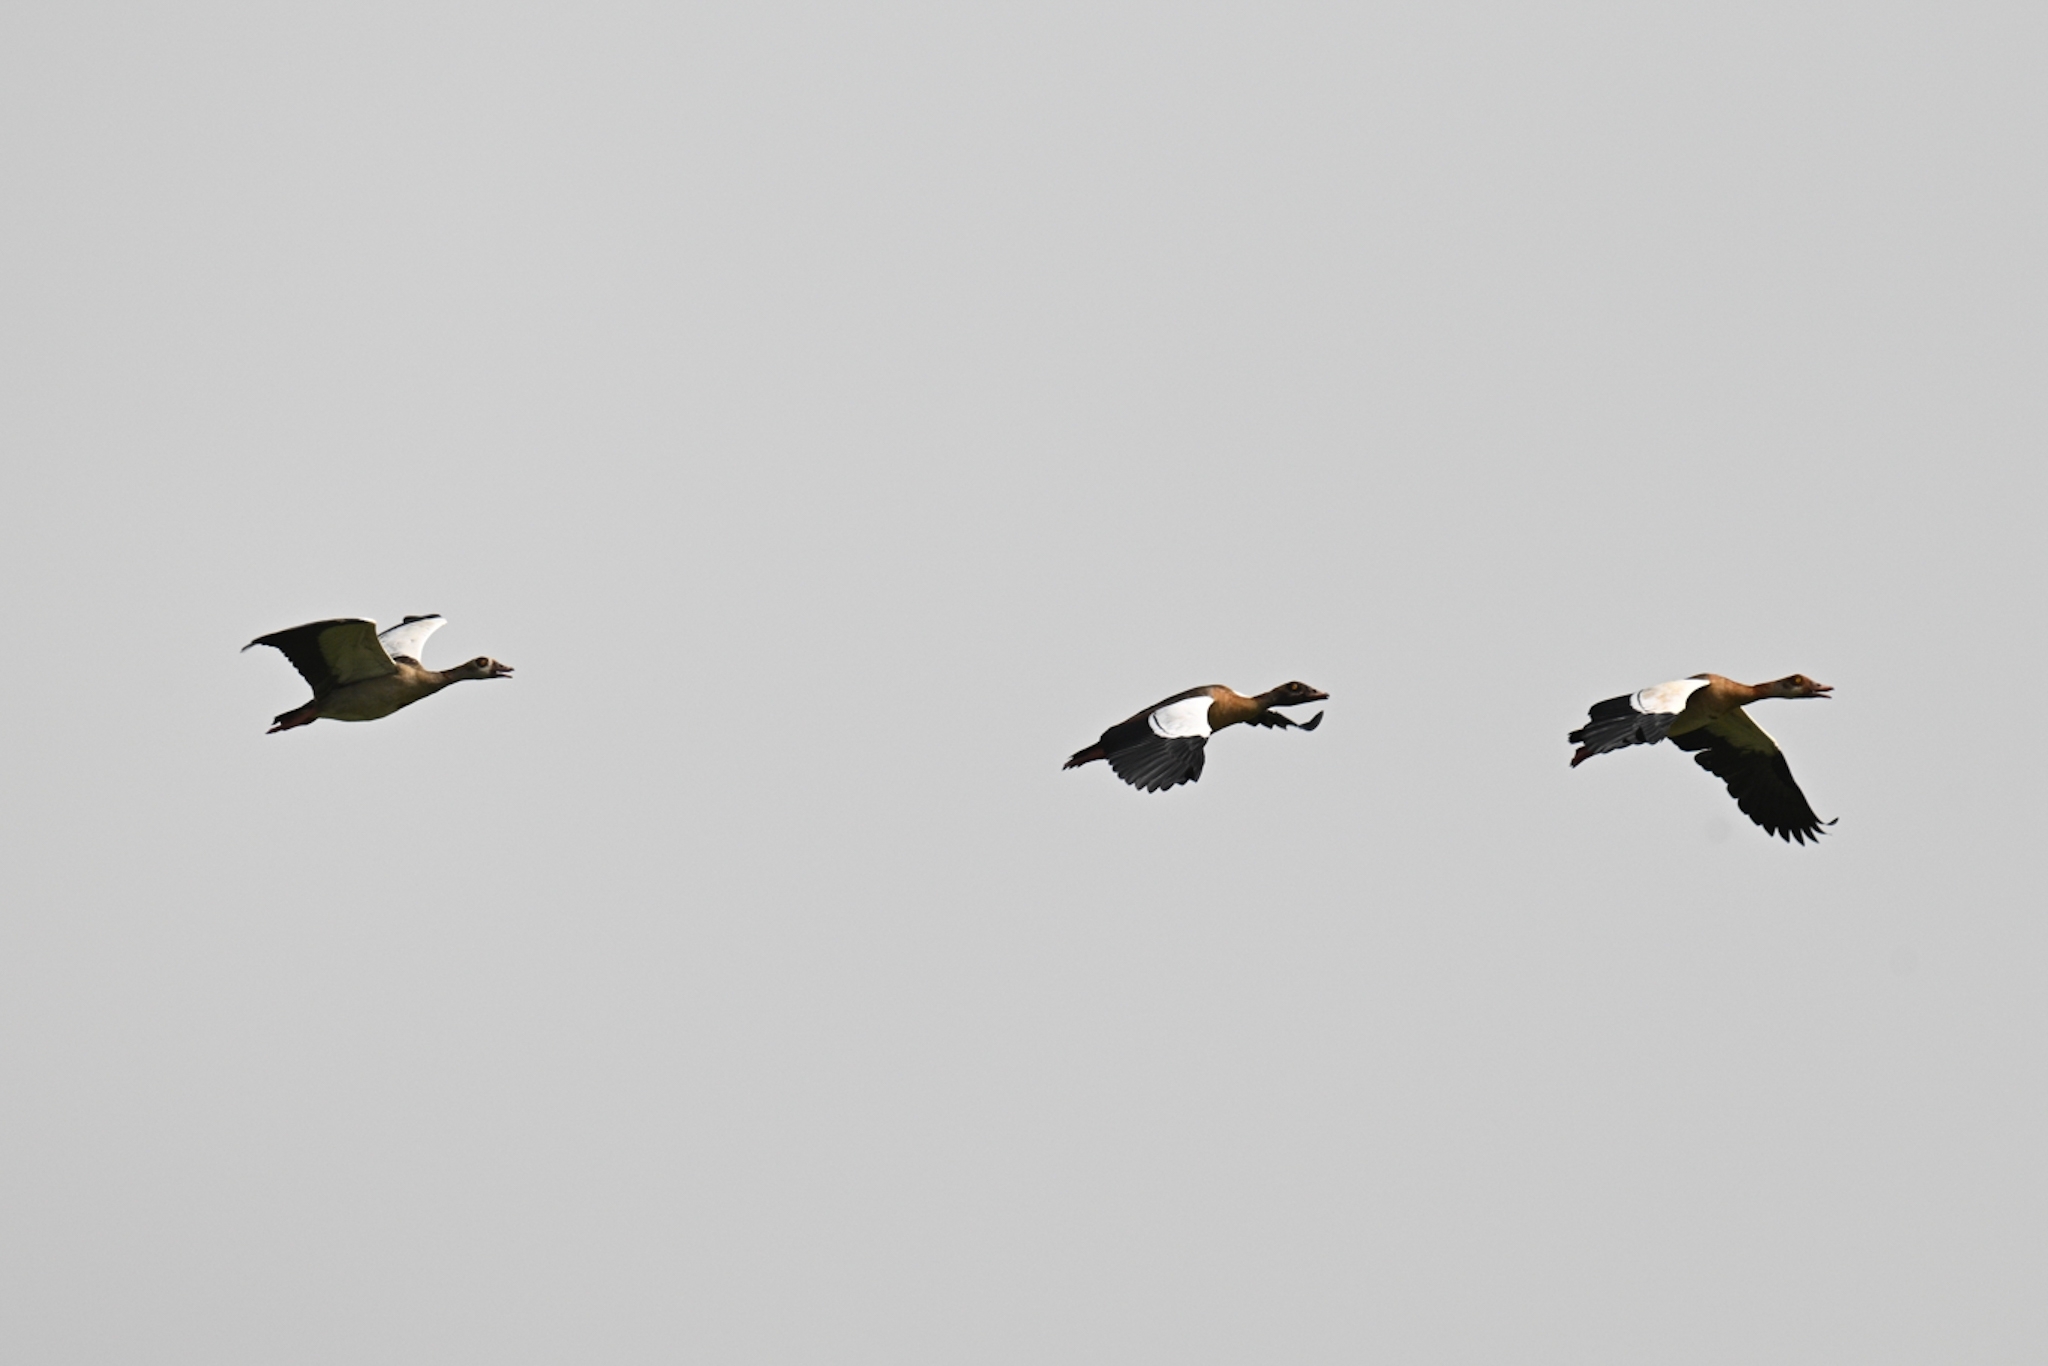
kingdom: Animalia
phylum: Chordata
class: Aves
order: Anseriformes
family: Anatidae
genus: Alopochen
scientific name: Alopochen aegyptiaca
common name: Egyptian goose
